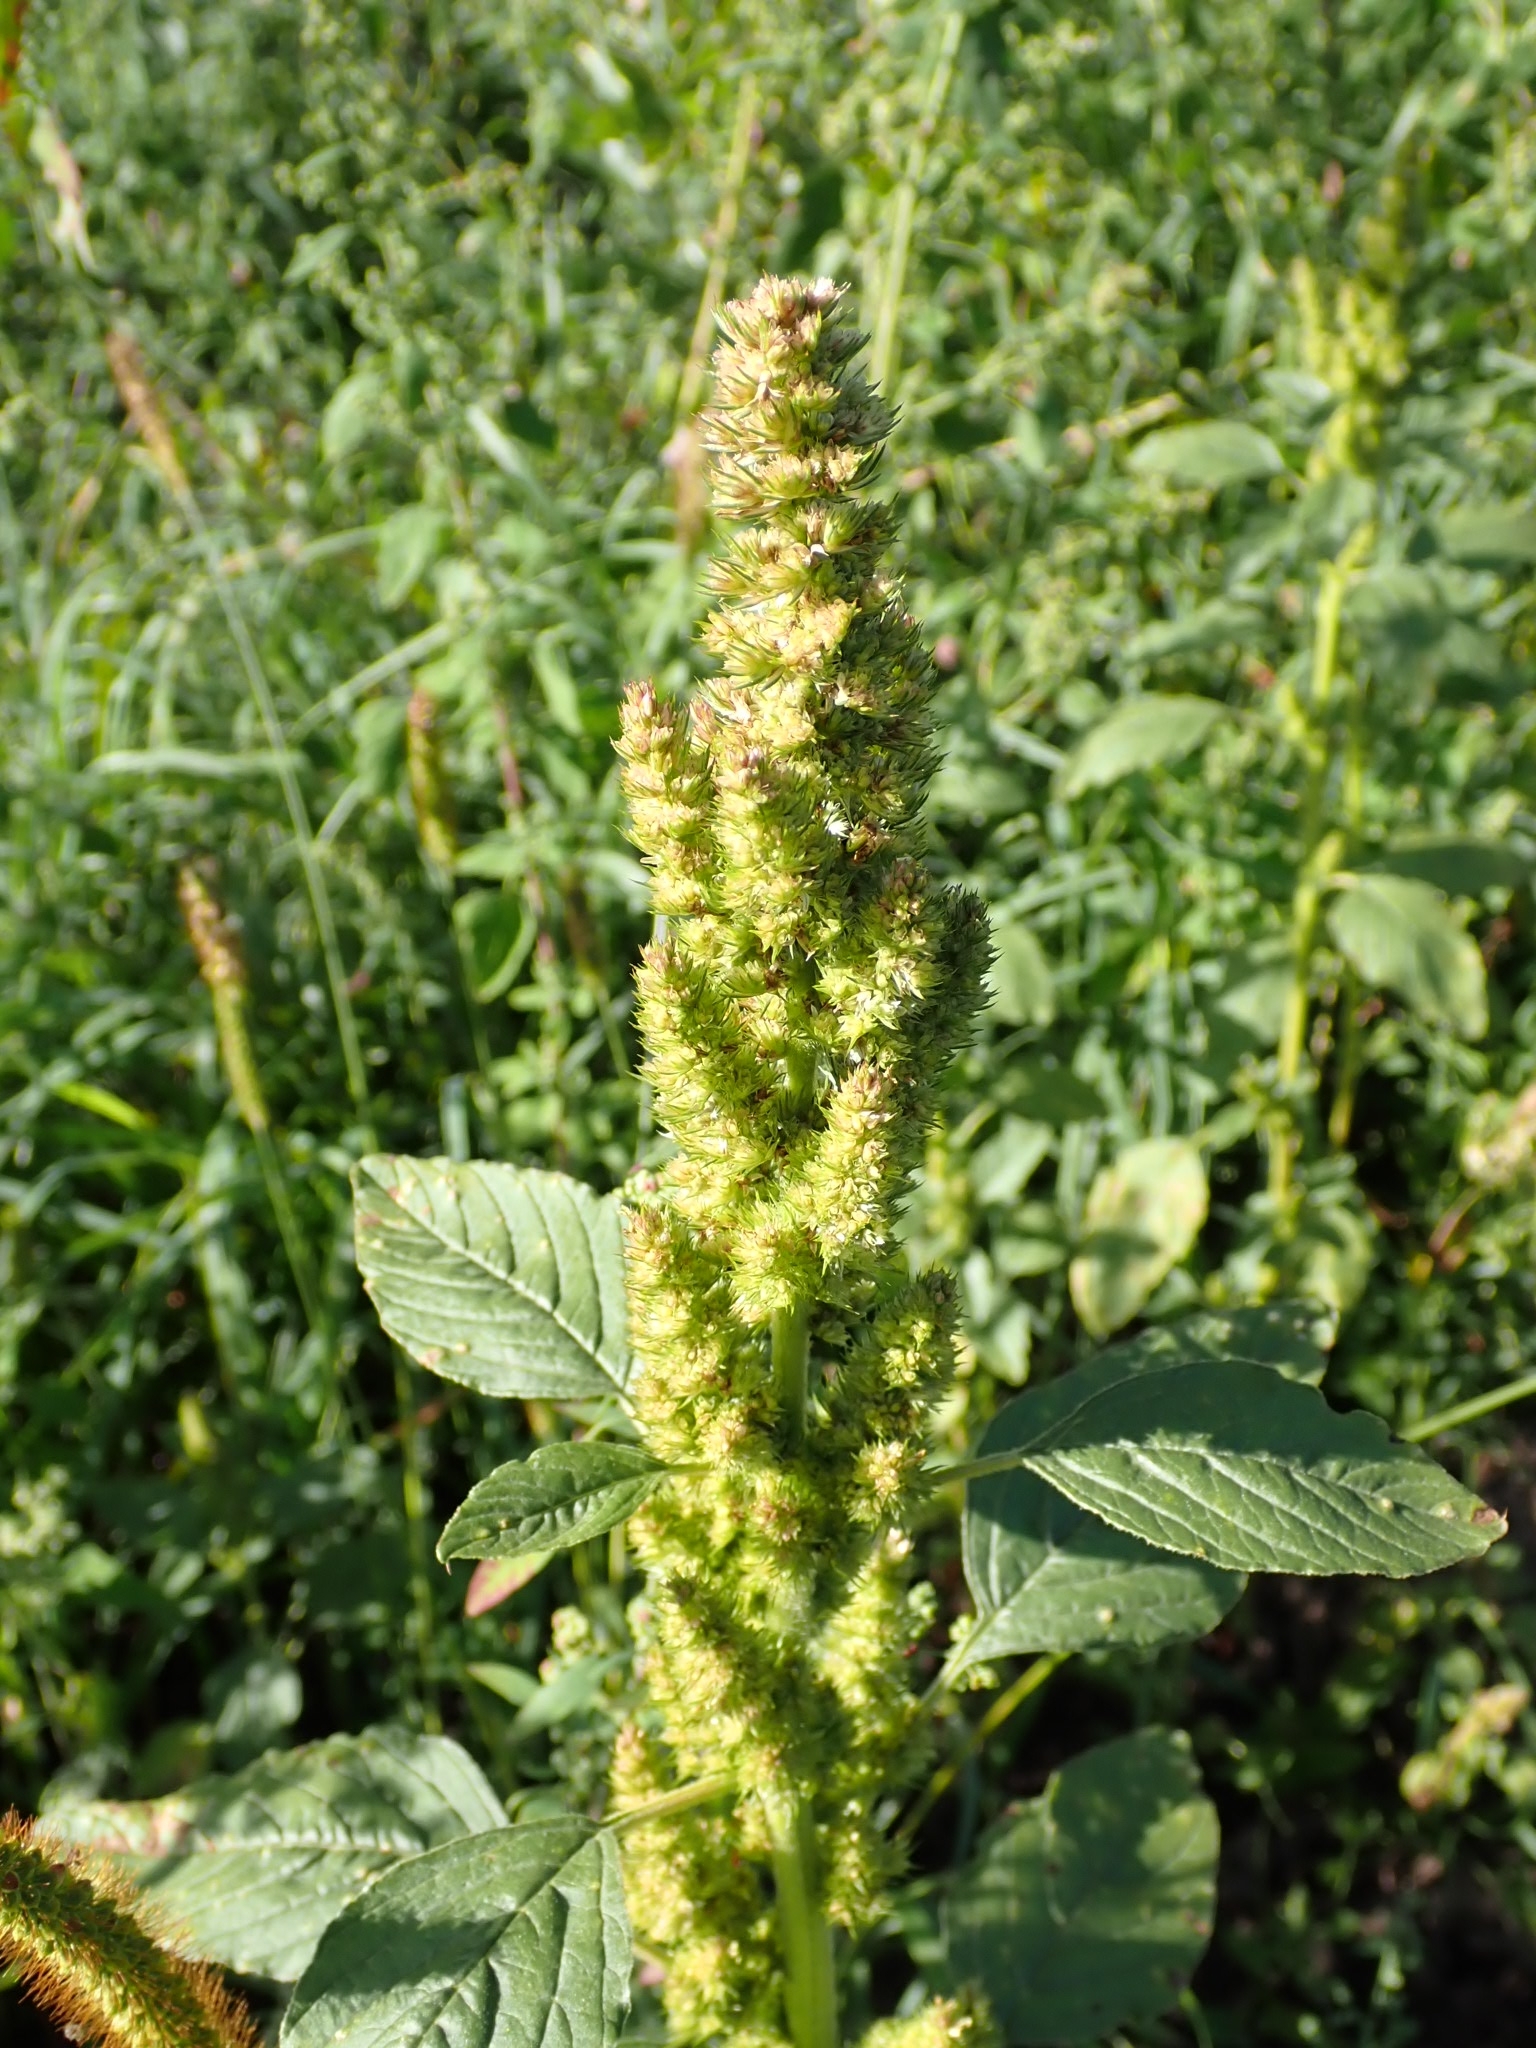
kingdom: Plantae
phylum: Tracheophyta
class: Magnoliopsida
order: Caryophyllales
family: Amaranthaceae
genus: Amaranthus
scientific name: Amaranthus retroflexus
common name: Redroot amaranth
